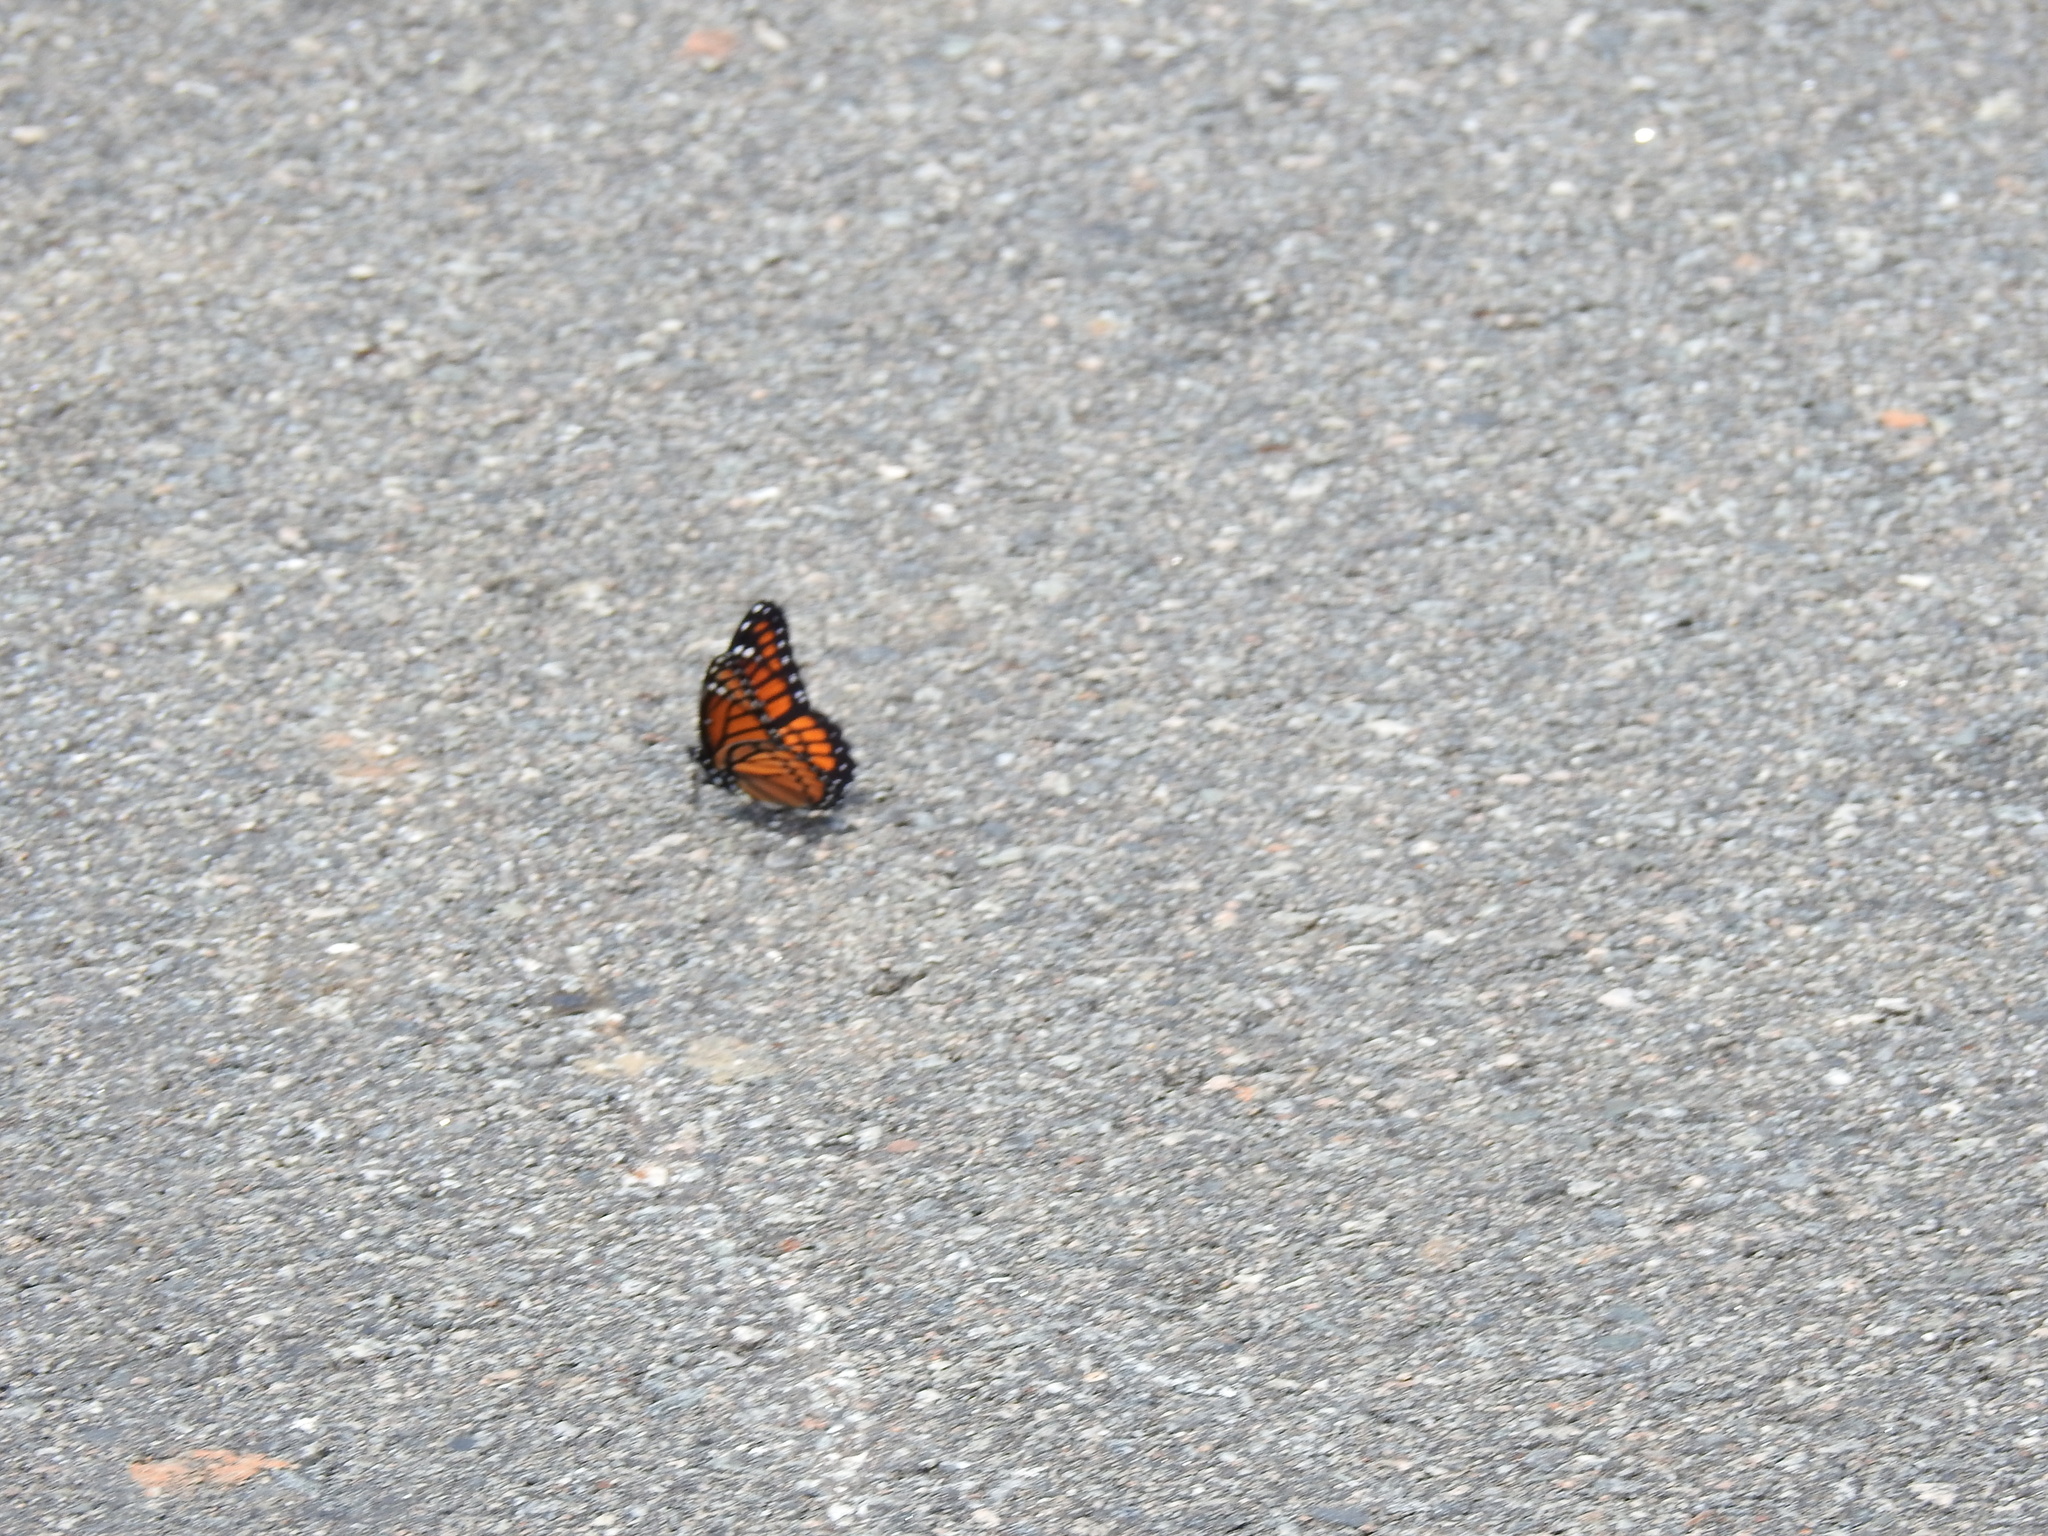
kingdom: Animalia
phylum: Arthropoda
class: Insecta
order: Lepidoptera
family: Nymphalidae
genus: Limenitis
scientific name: Limenitis archippus
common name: Viceroy
